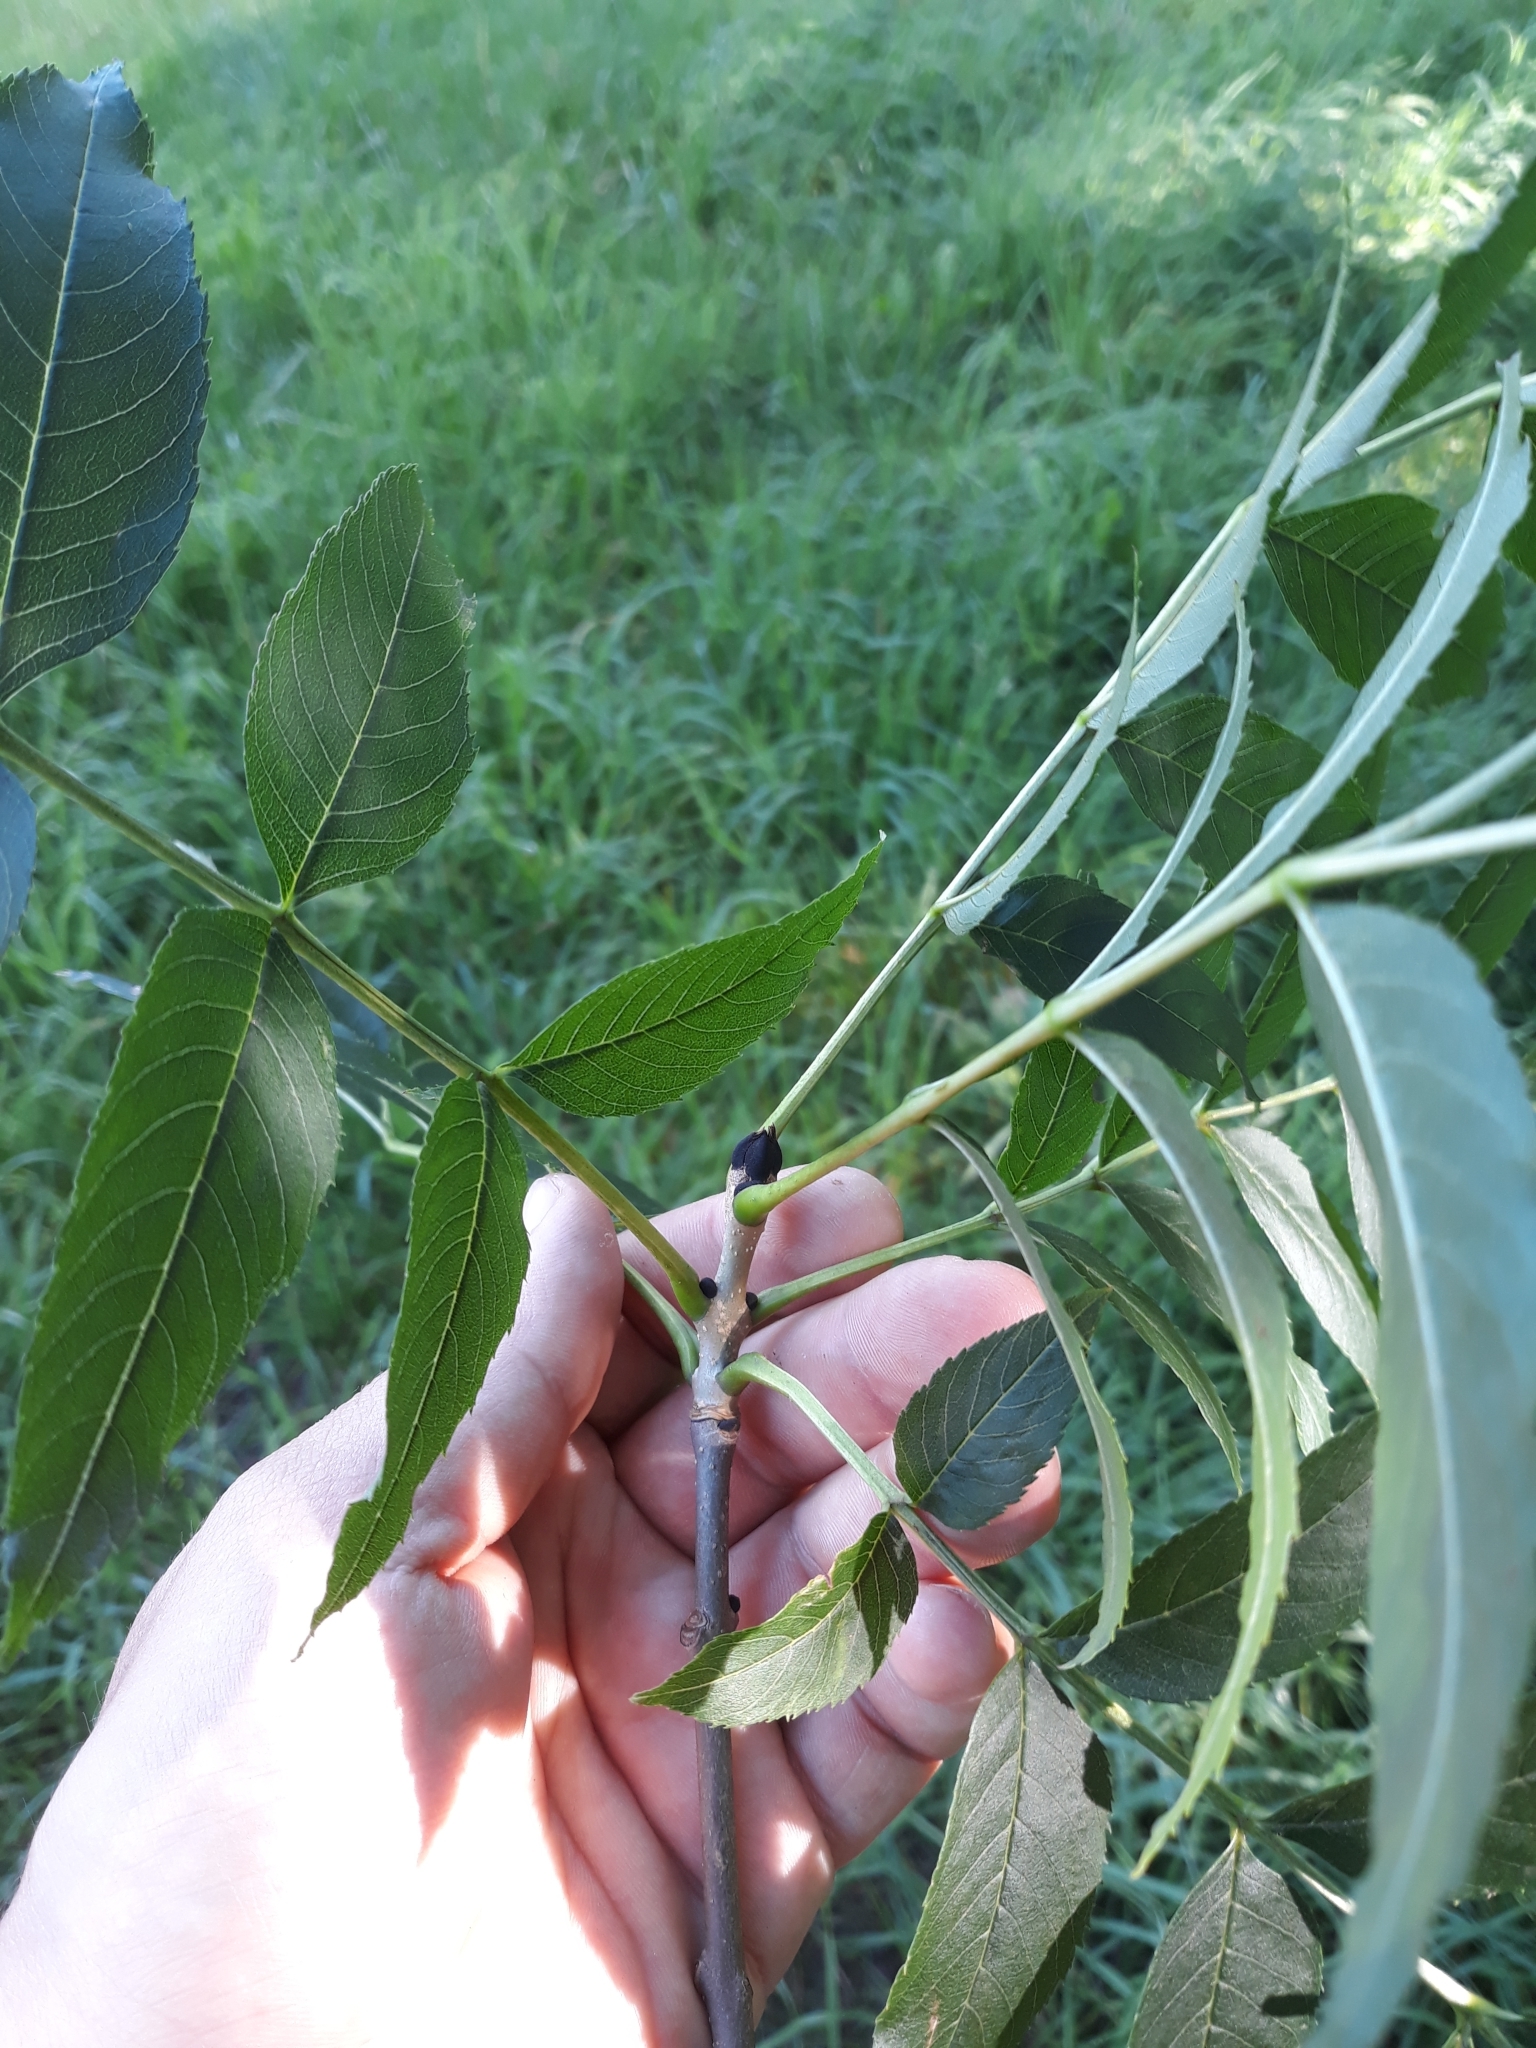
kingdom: Plantae
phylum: Tracheophyta
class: Magnoliopsida
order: Lamiales
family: Oleaceae
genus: Fraxinus
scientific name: Fraxinus excelsior
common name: European ash
